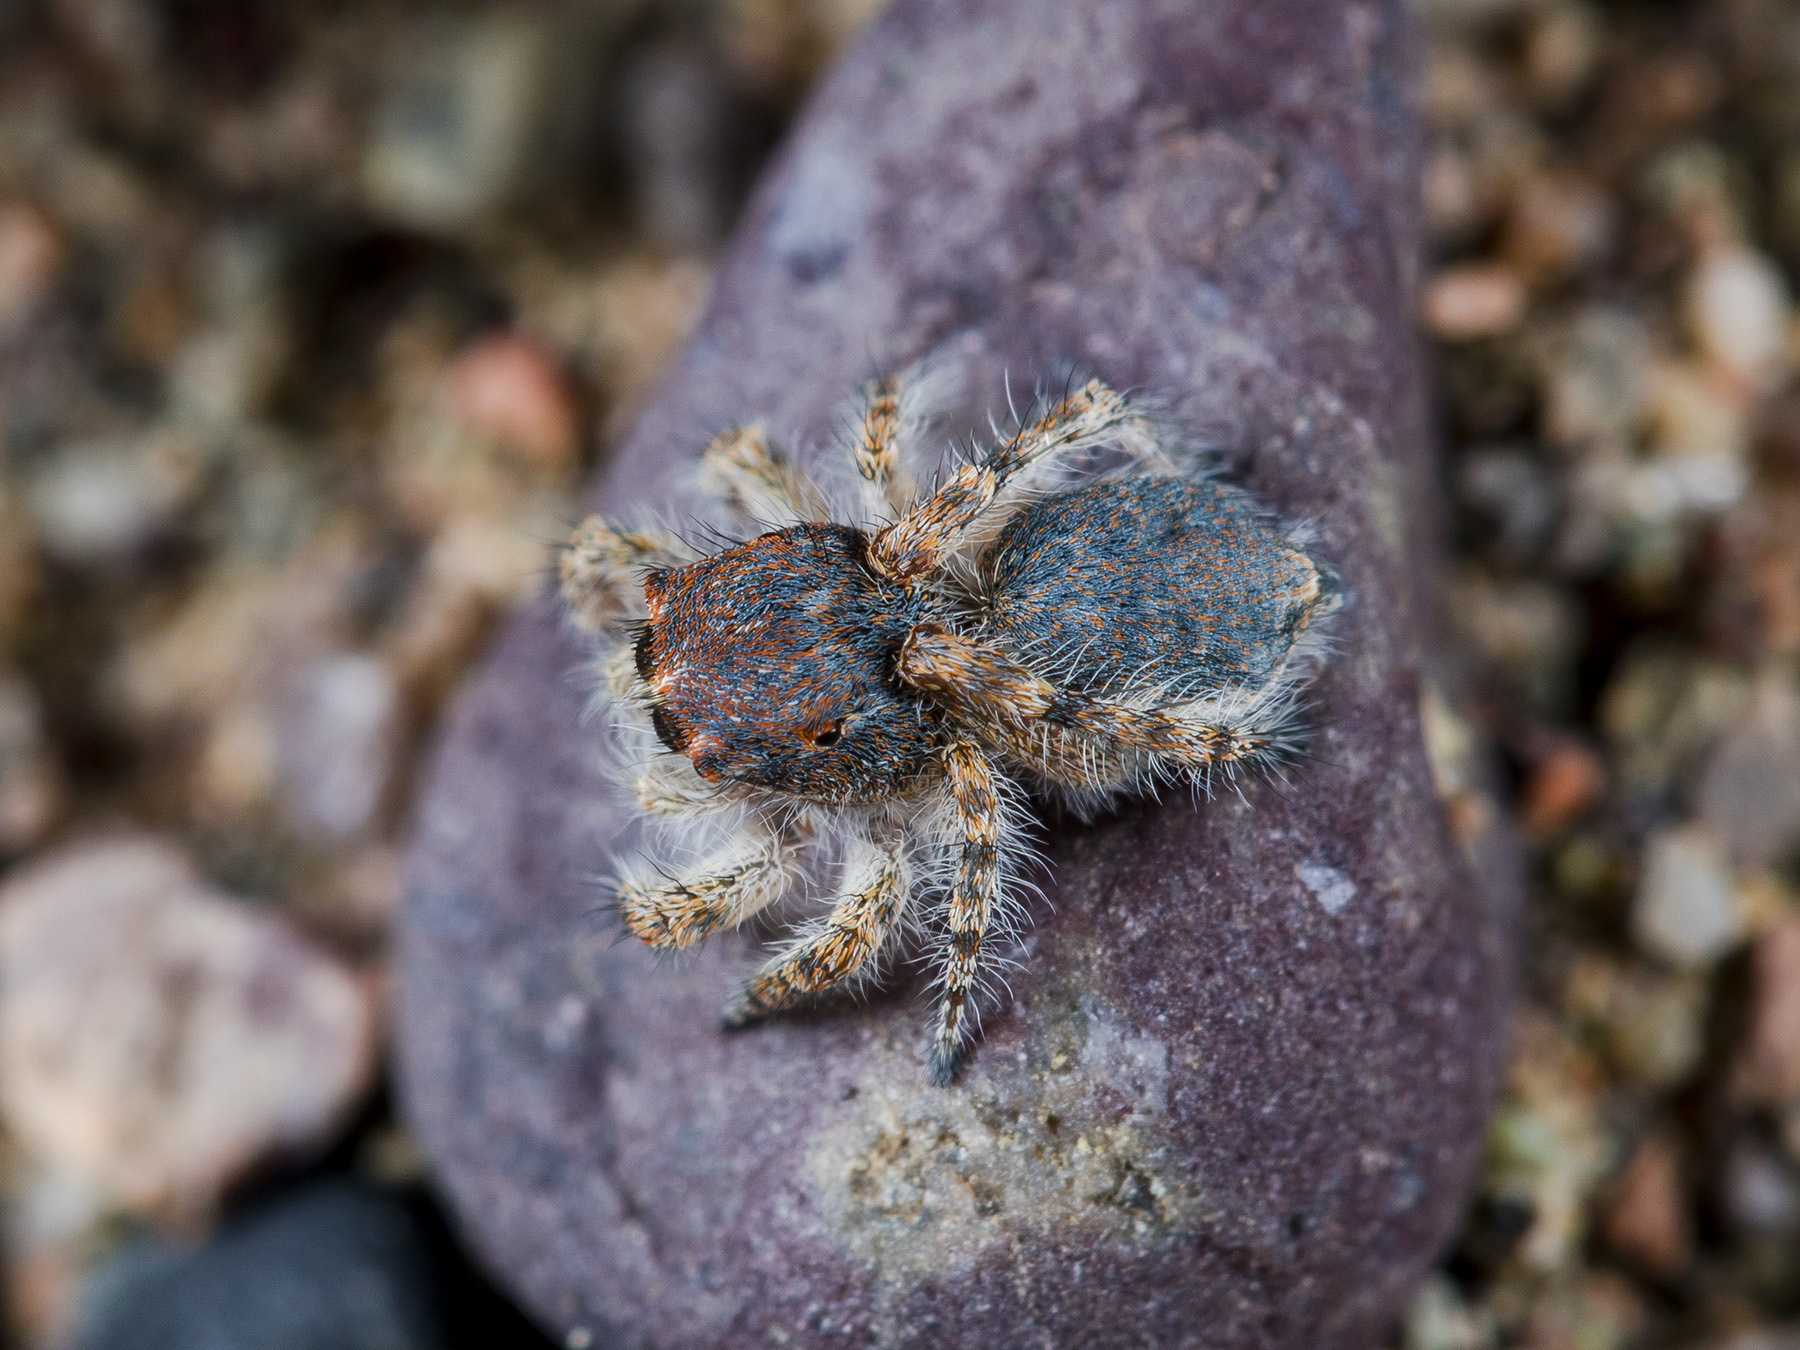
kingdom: Animalia
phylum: Arthropoda
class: Arachnida
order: Araneae
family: Salticidae
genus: Yllenus
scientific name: Yllenus zyuzini
